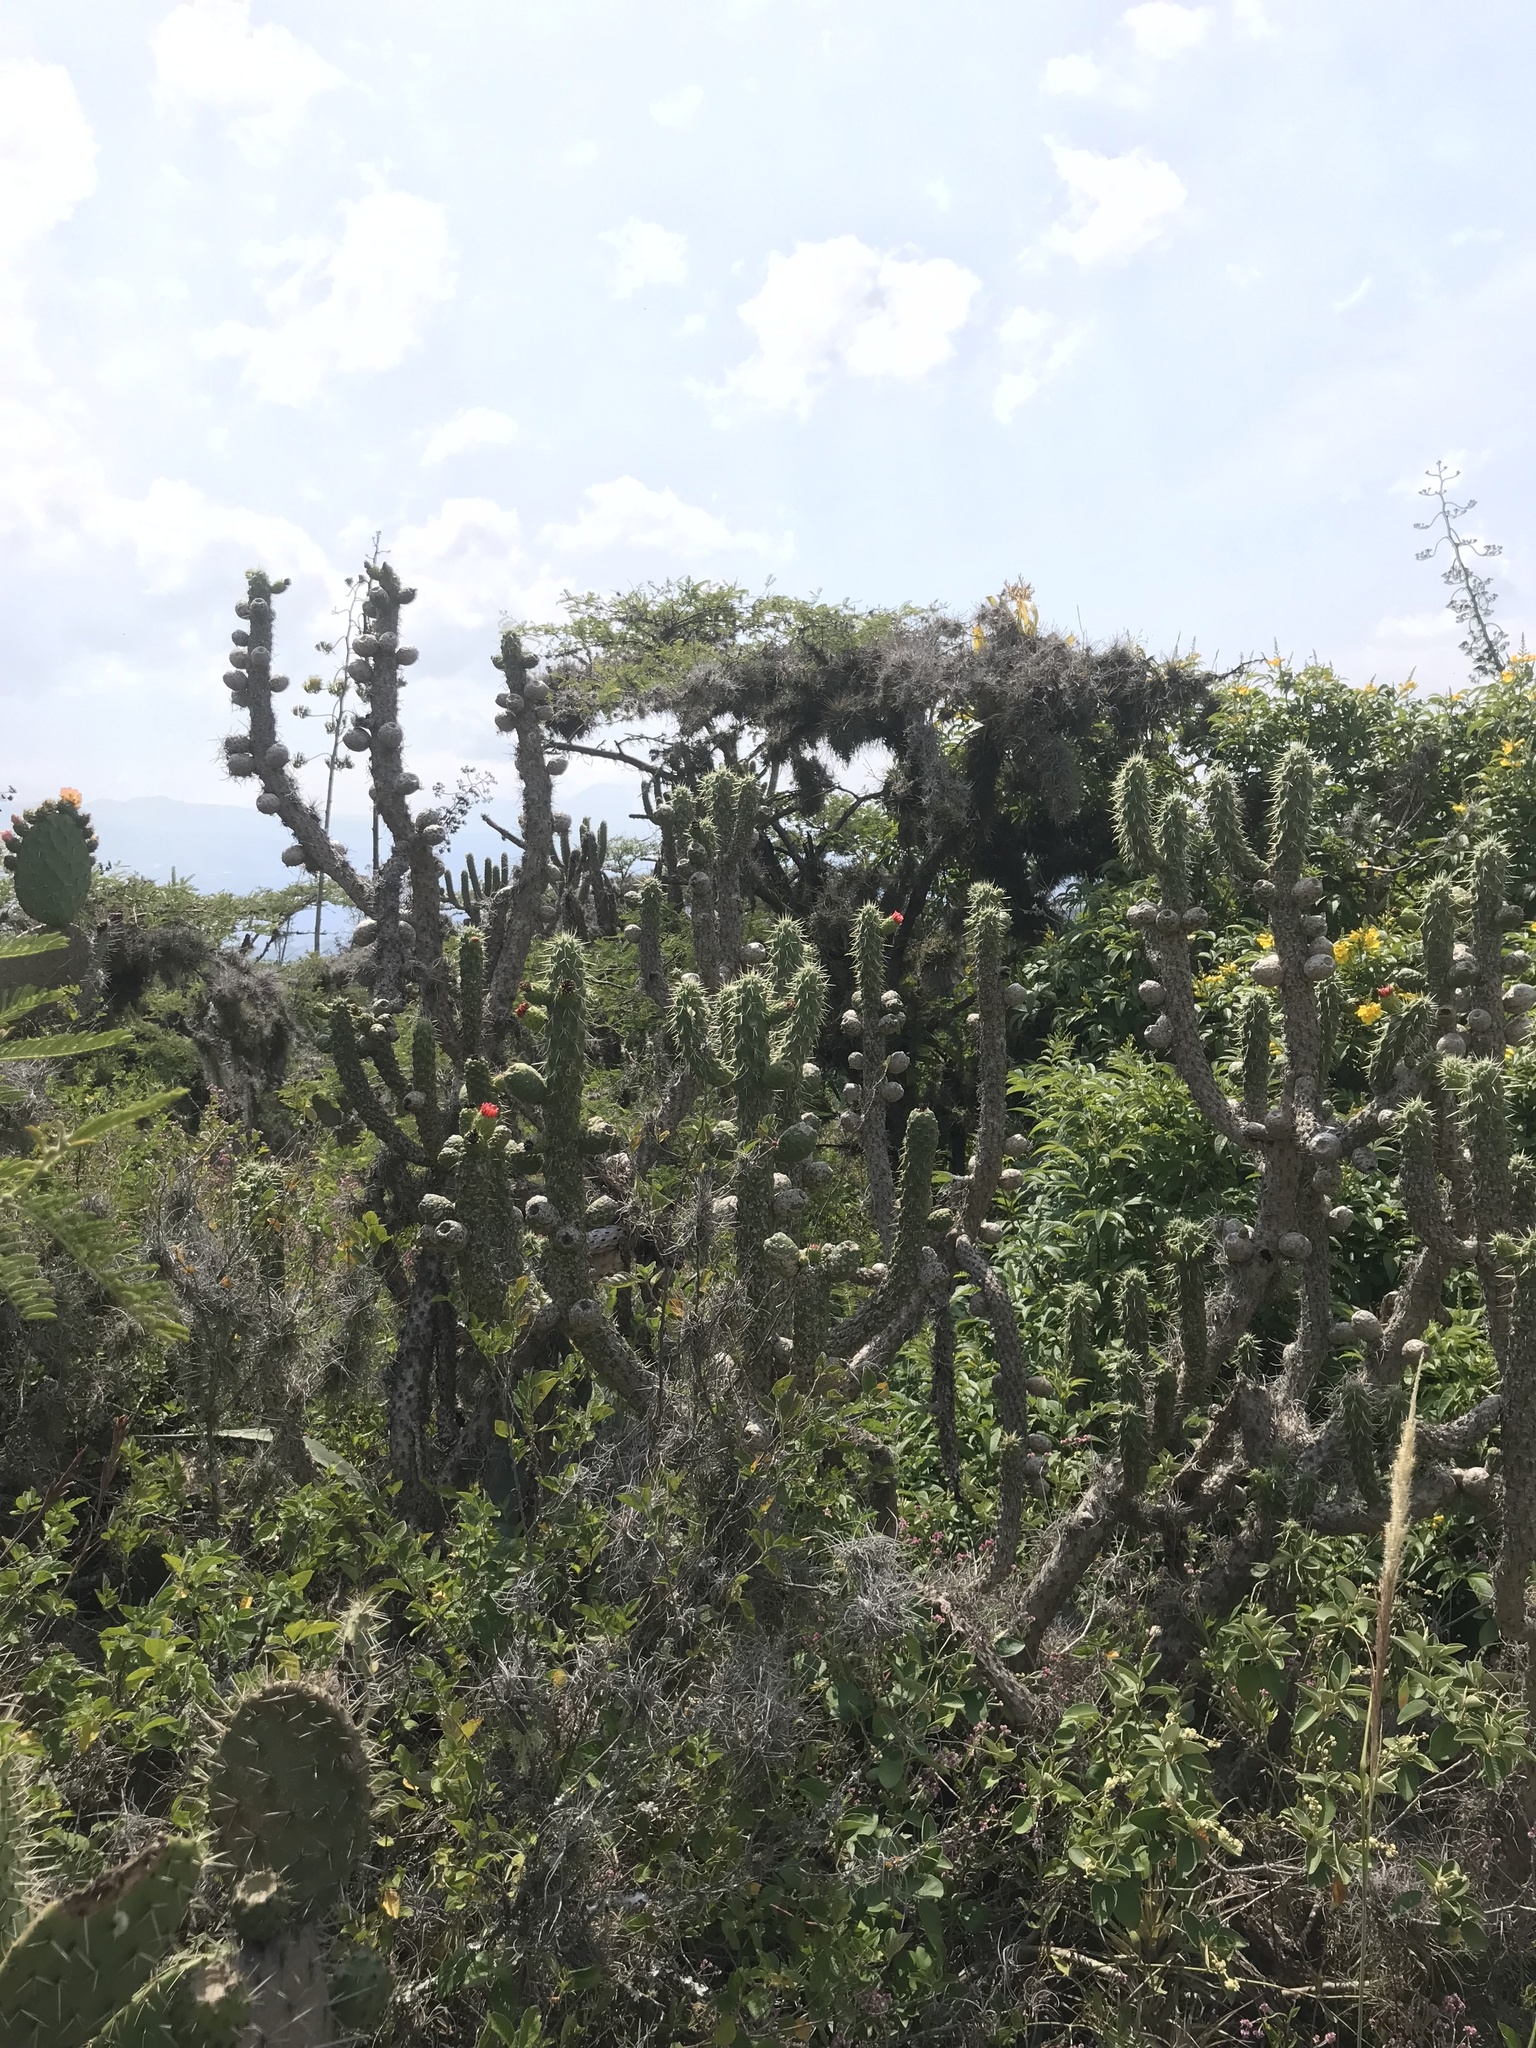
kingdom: Plantae
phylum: Tracheophyta
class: Magnoliopsida
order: Caryophyllales
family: Cactaceae
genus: Austrocylindropuntia
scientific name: Austrocylindropuntia cylindrica
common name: Cane cactus
